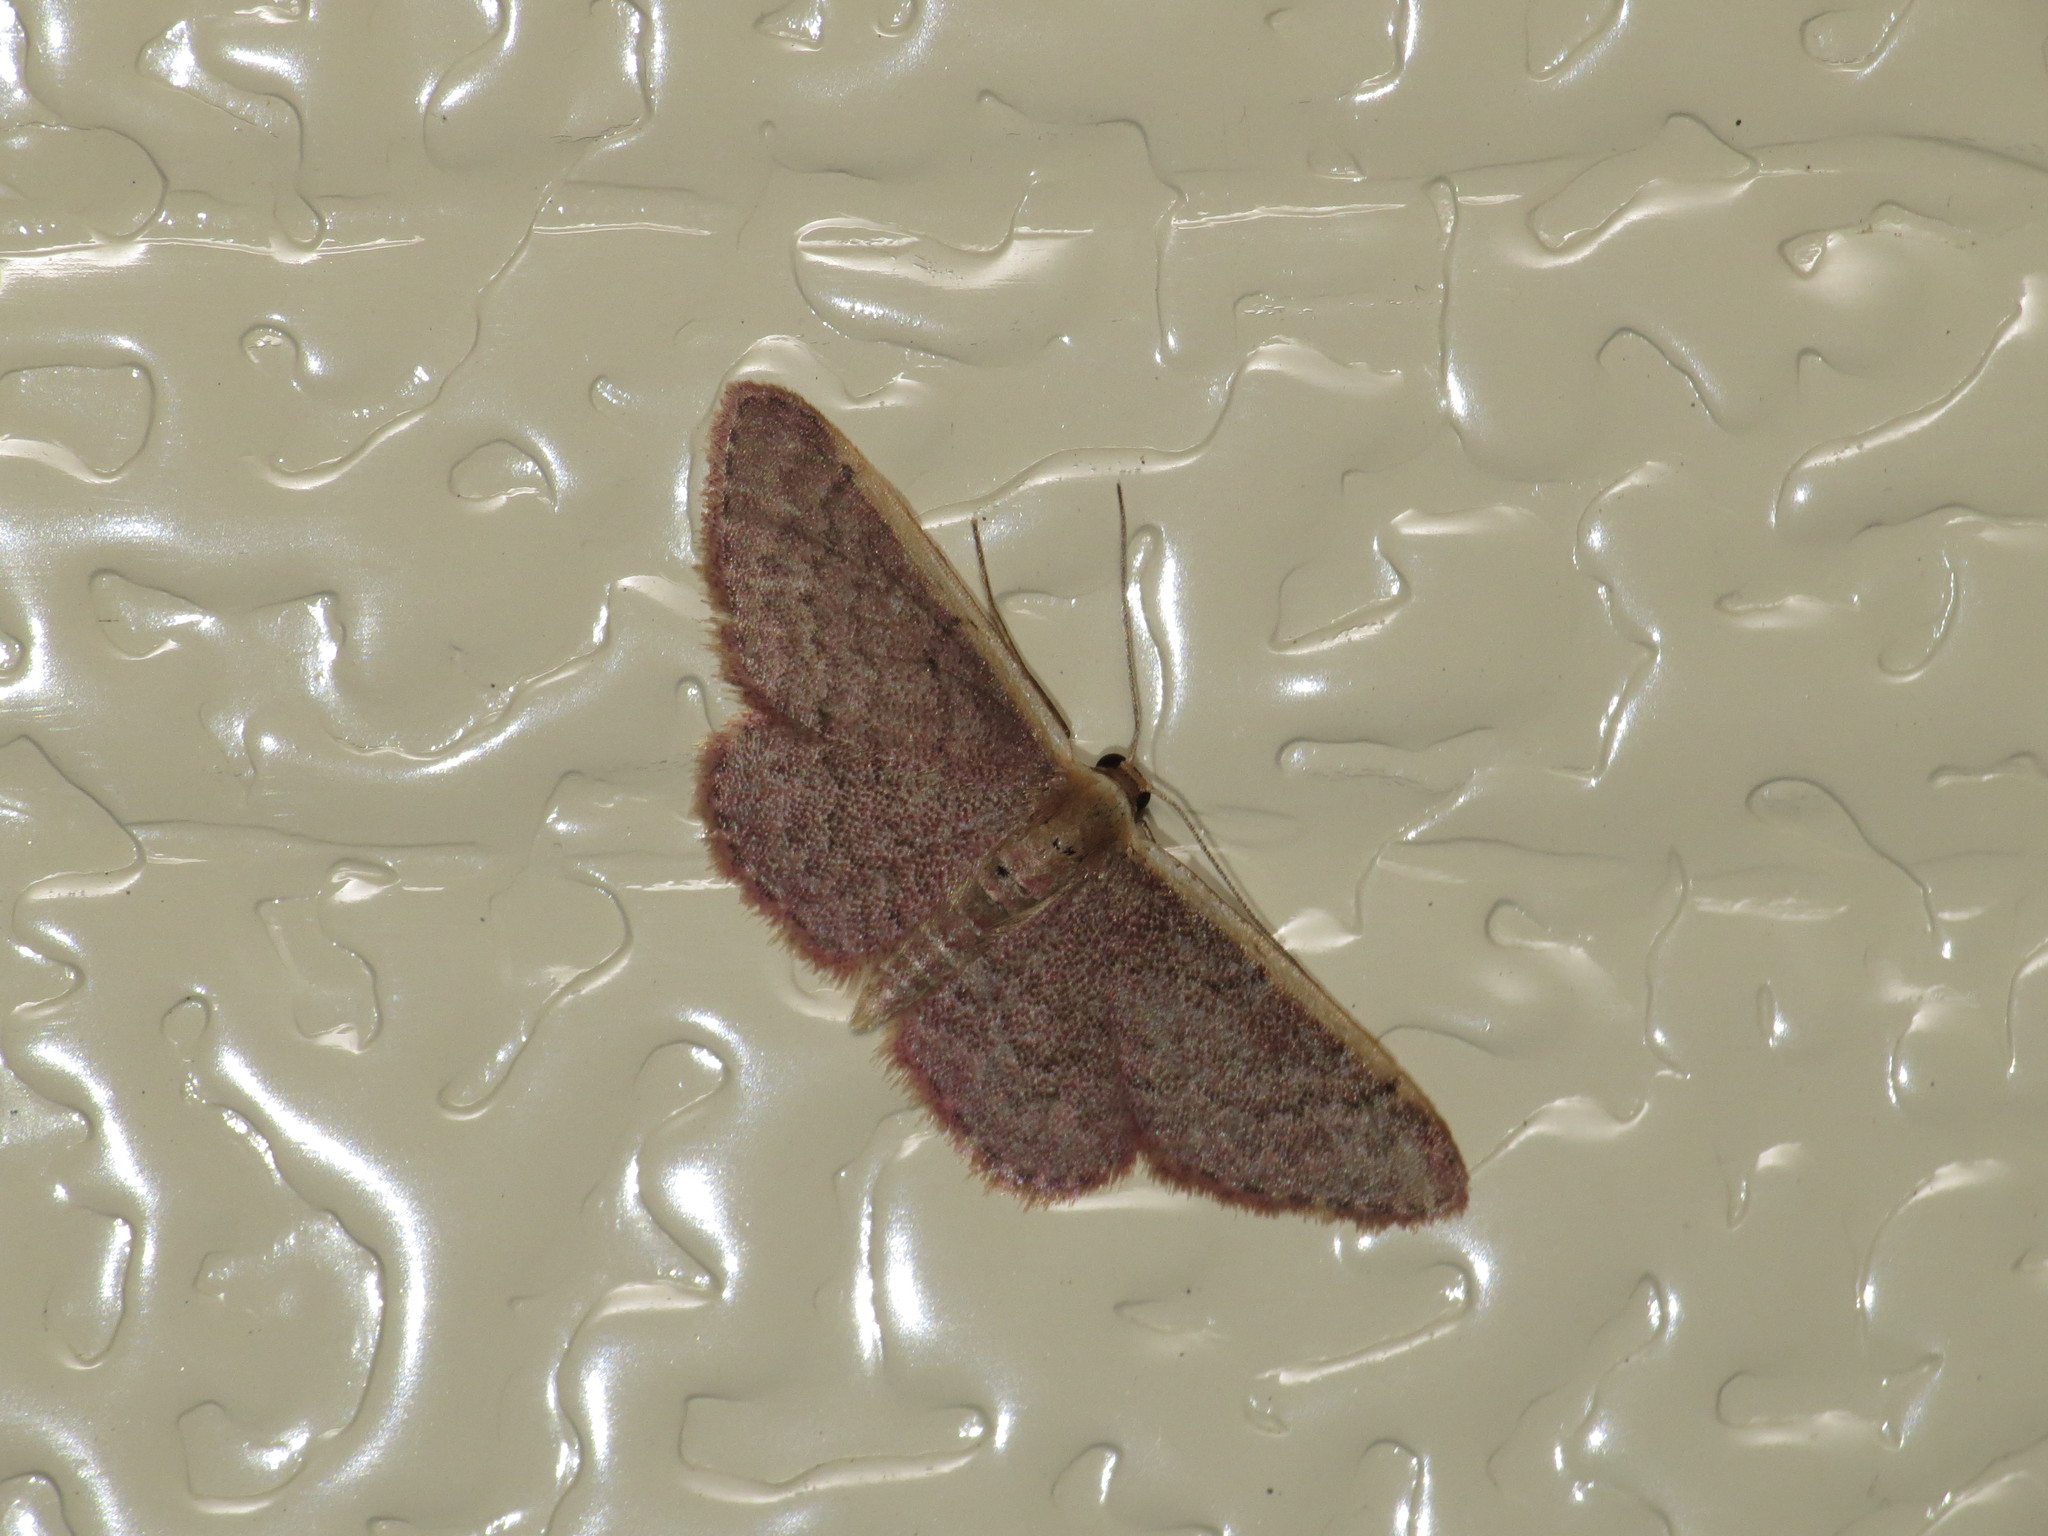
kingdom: Animalia
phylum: Arthropoda
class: Insecta
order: Lepidoptera
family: Geometridae
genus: Idaea
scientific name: Idaea costaria
